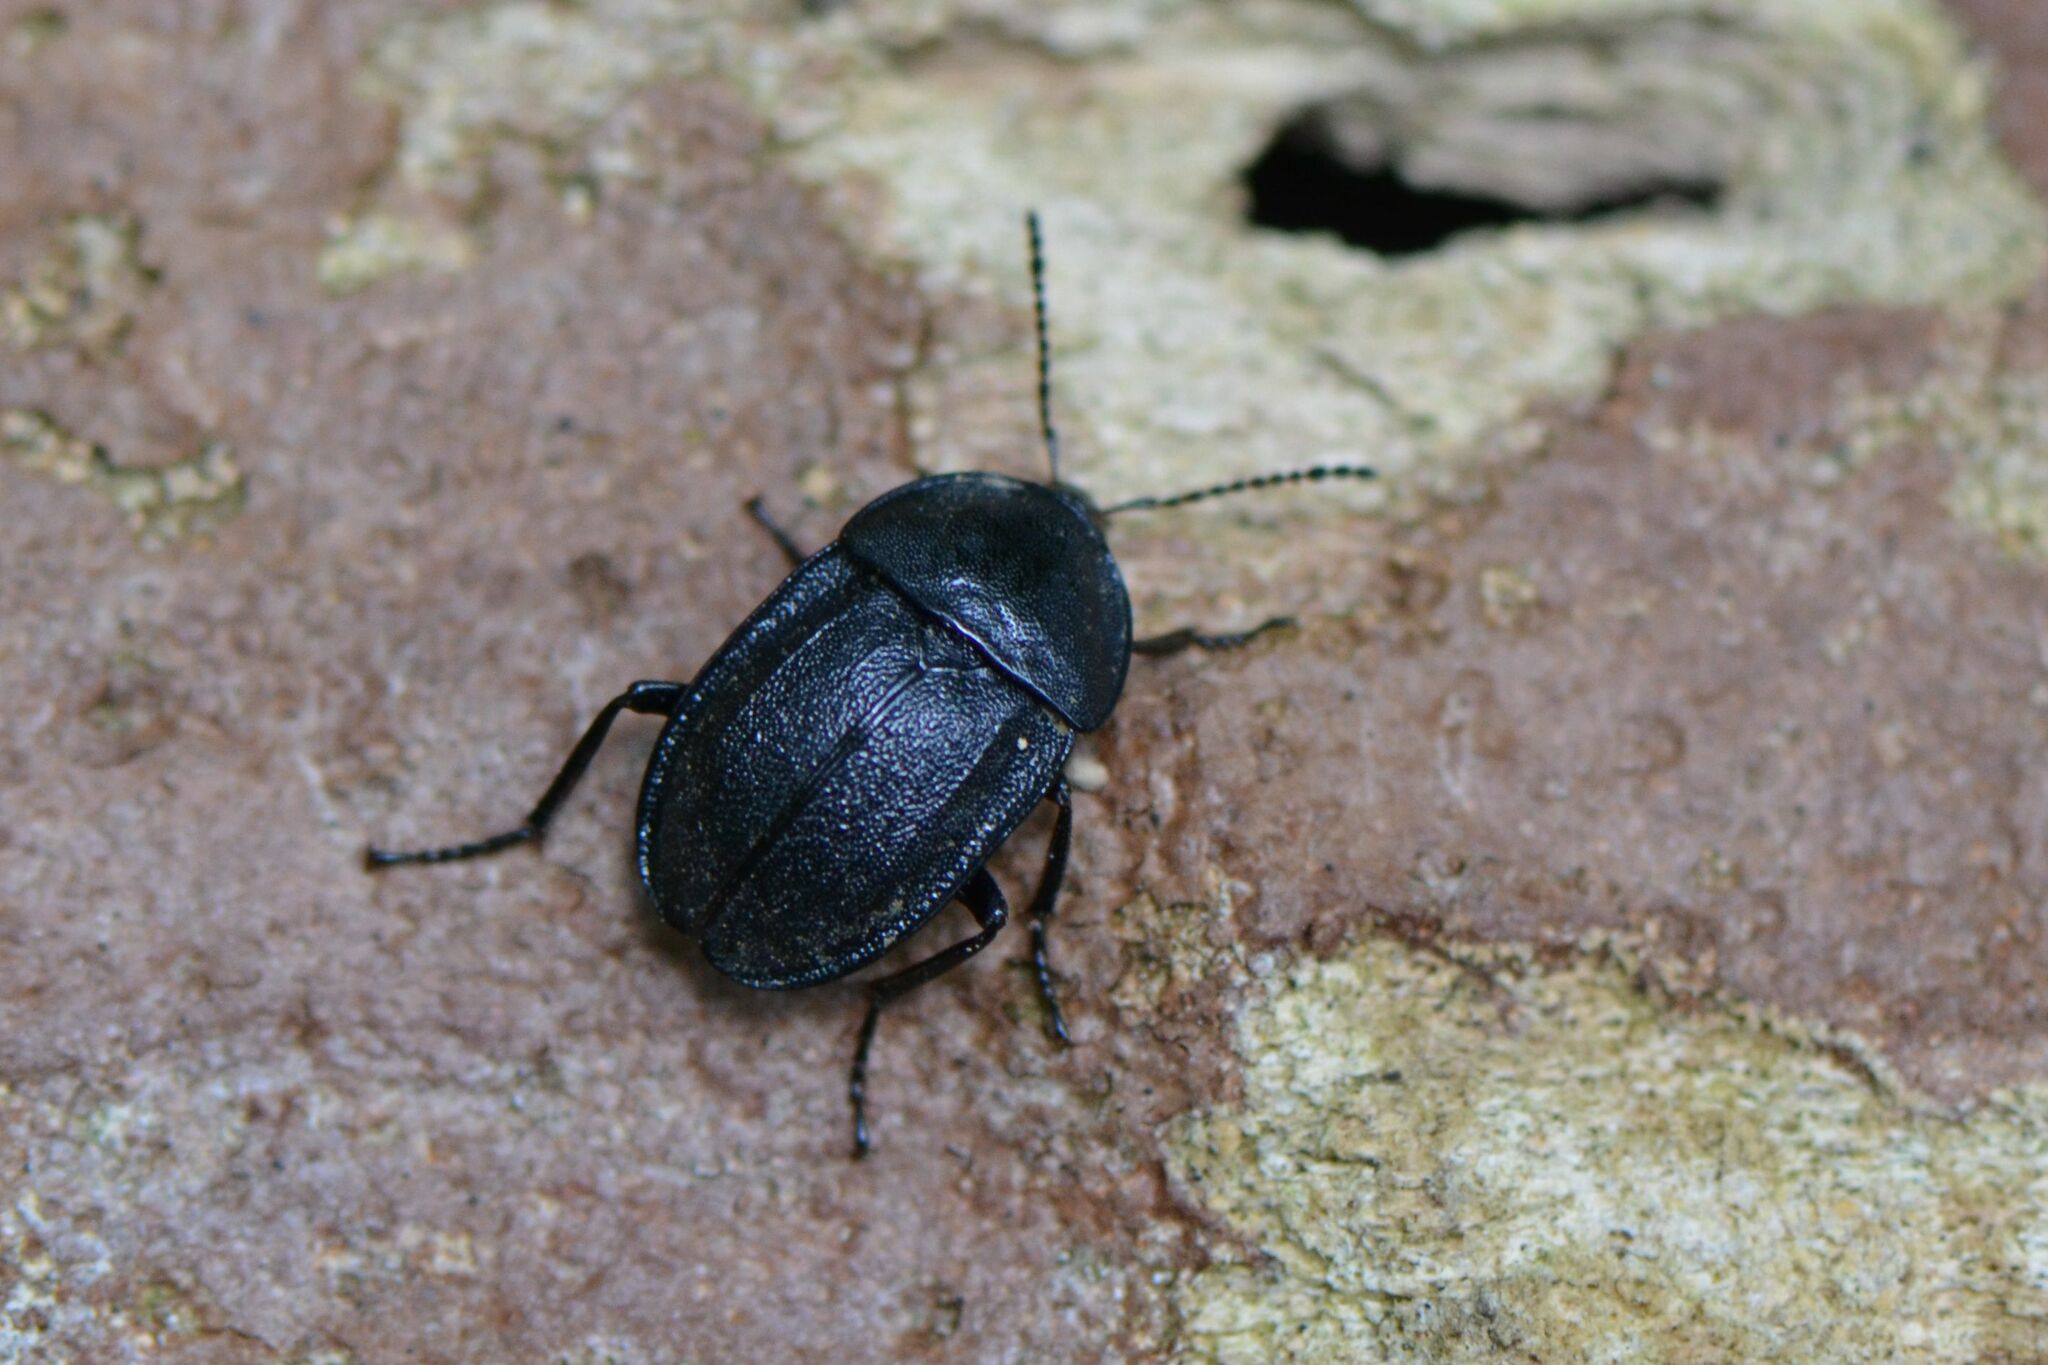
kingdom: Animalia
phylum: Arthropoda
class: Insecta
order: Coleoptera
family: Staphylinidae
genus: Silpha
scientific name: Silpha atrata
